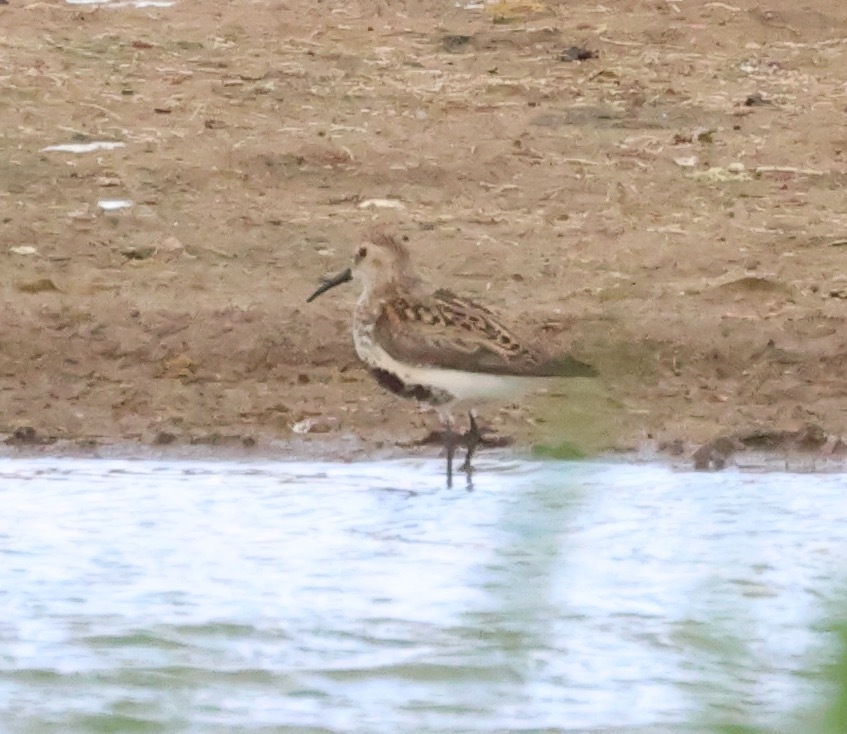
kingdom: Animalia
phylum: Chordata
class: Aves
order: Charadriiformes
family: Scolopacidae
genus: Calidris
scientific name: Calidris alpina
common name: Dunlin
